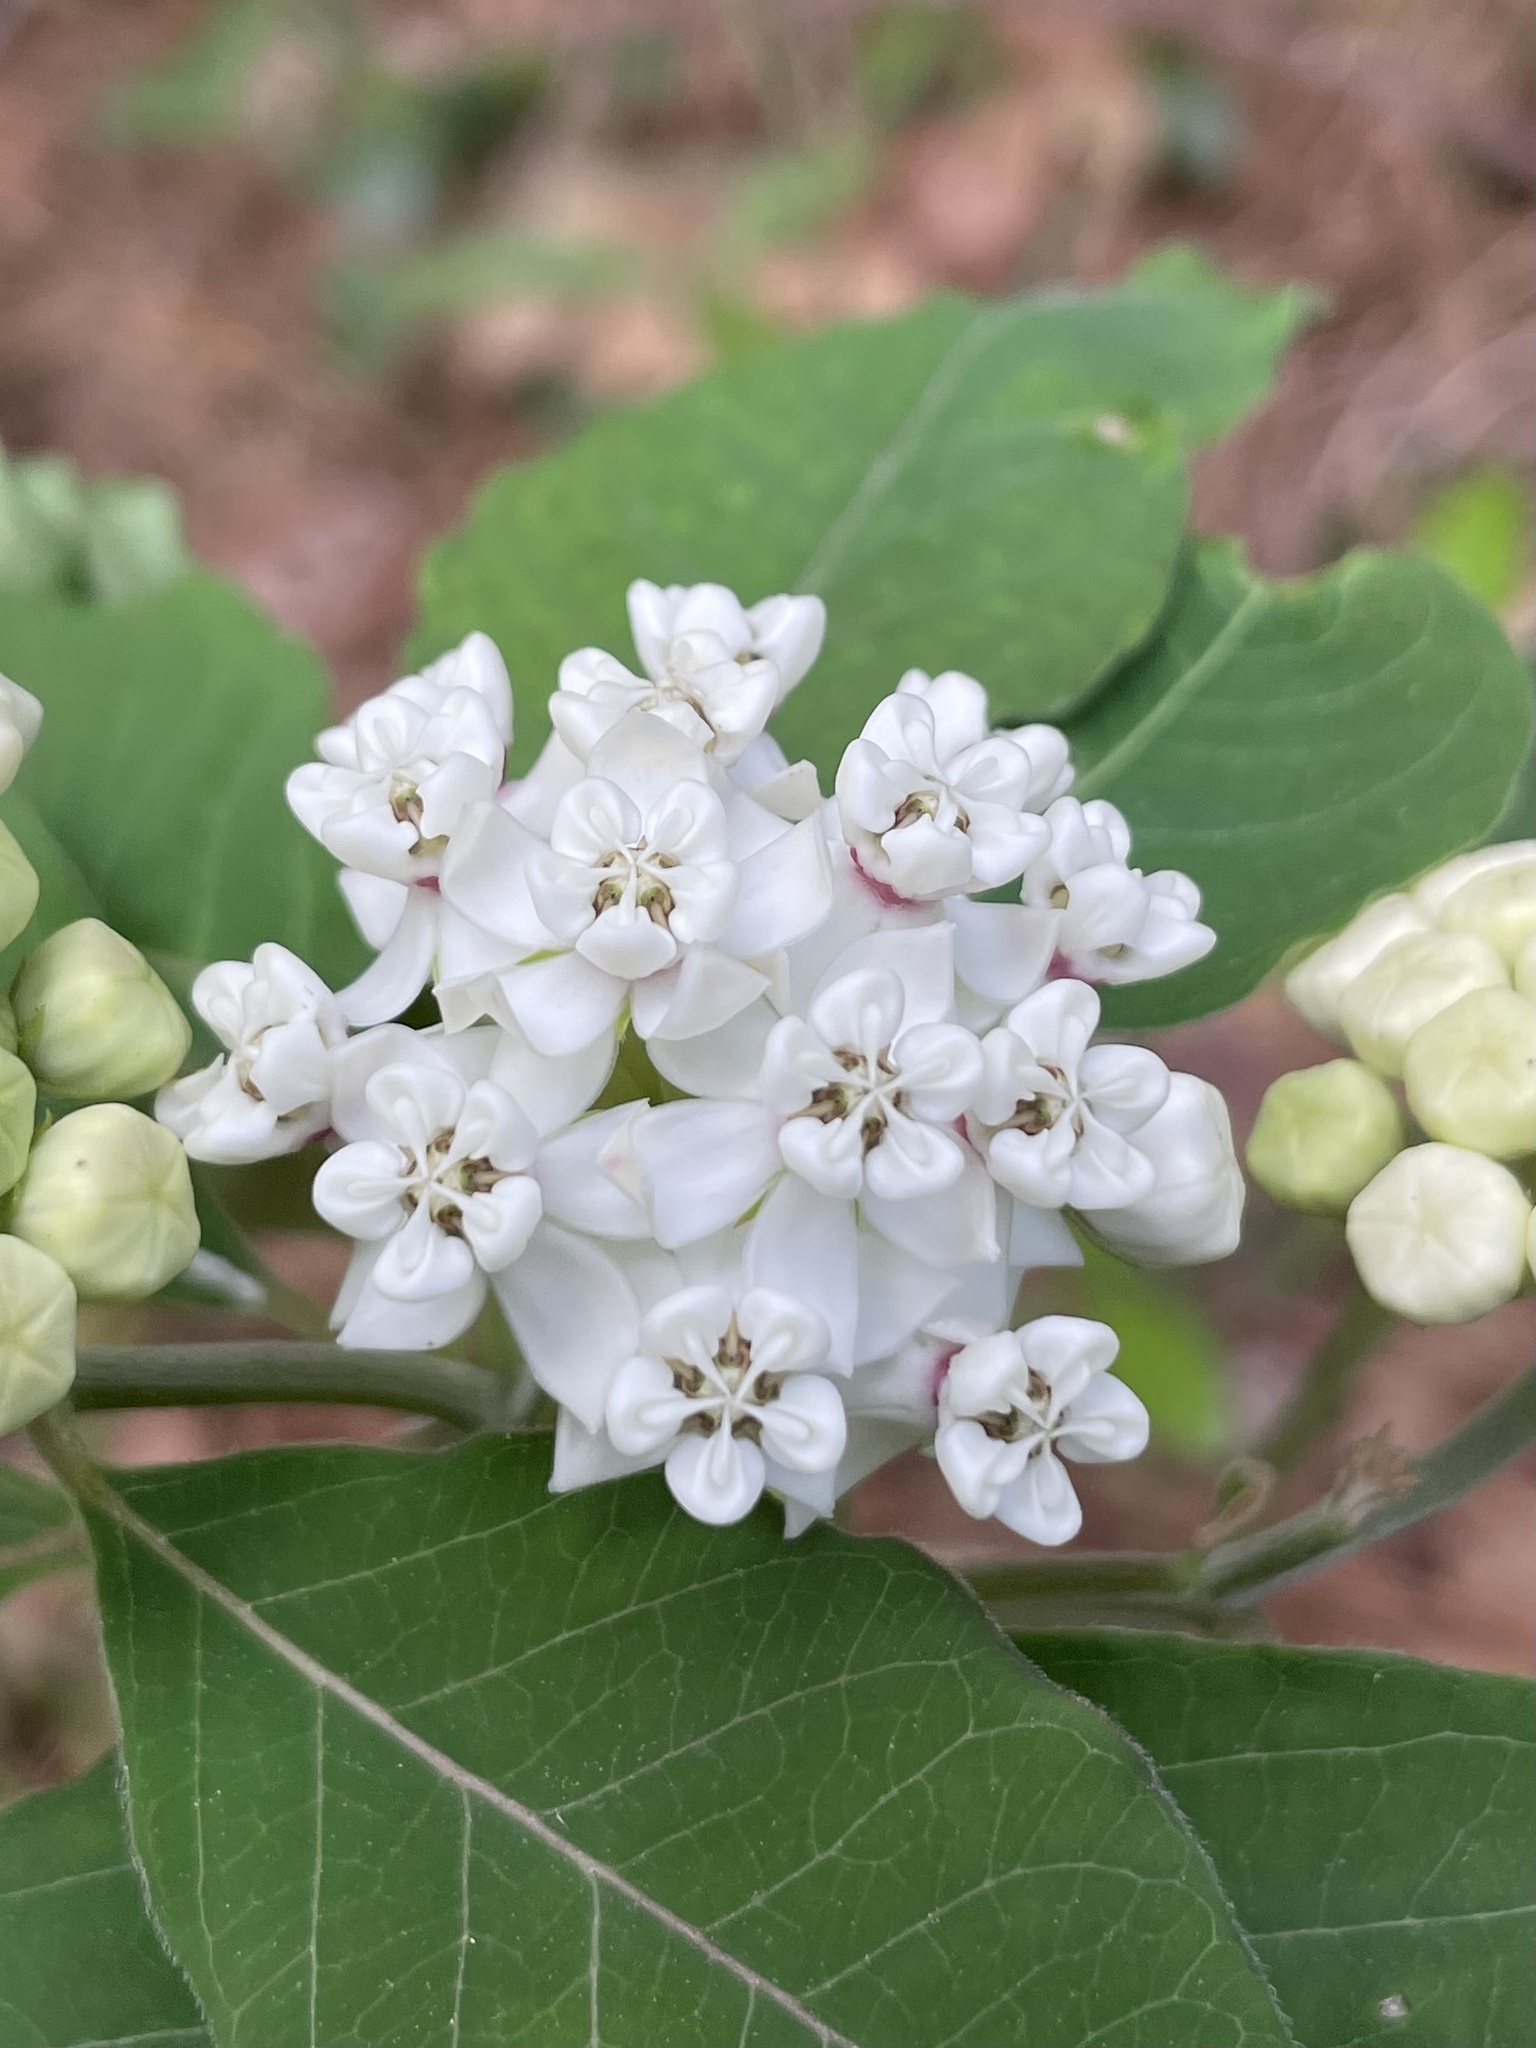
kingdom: Plantae
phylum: Tracheophyta
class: Magnoliopsida
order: Gentianales
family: Apocynaceae
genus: Asclepias
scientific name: Asclepias variegata
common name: Variegated milkweed
